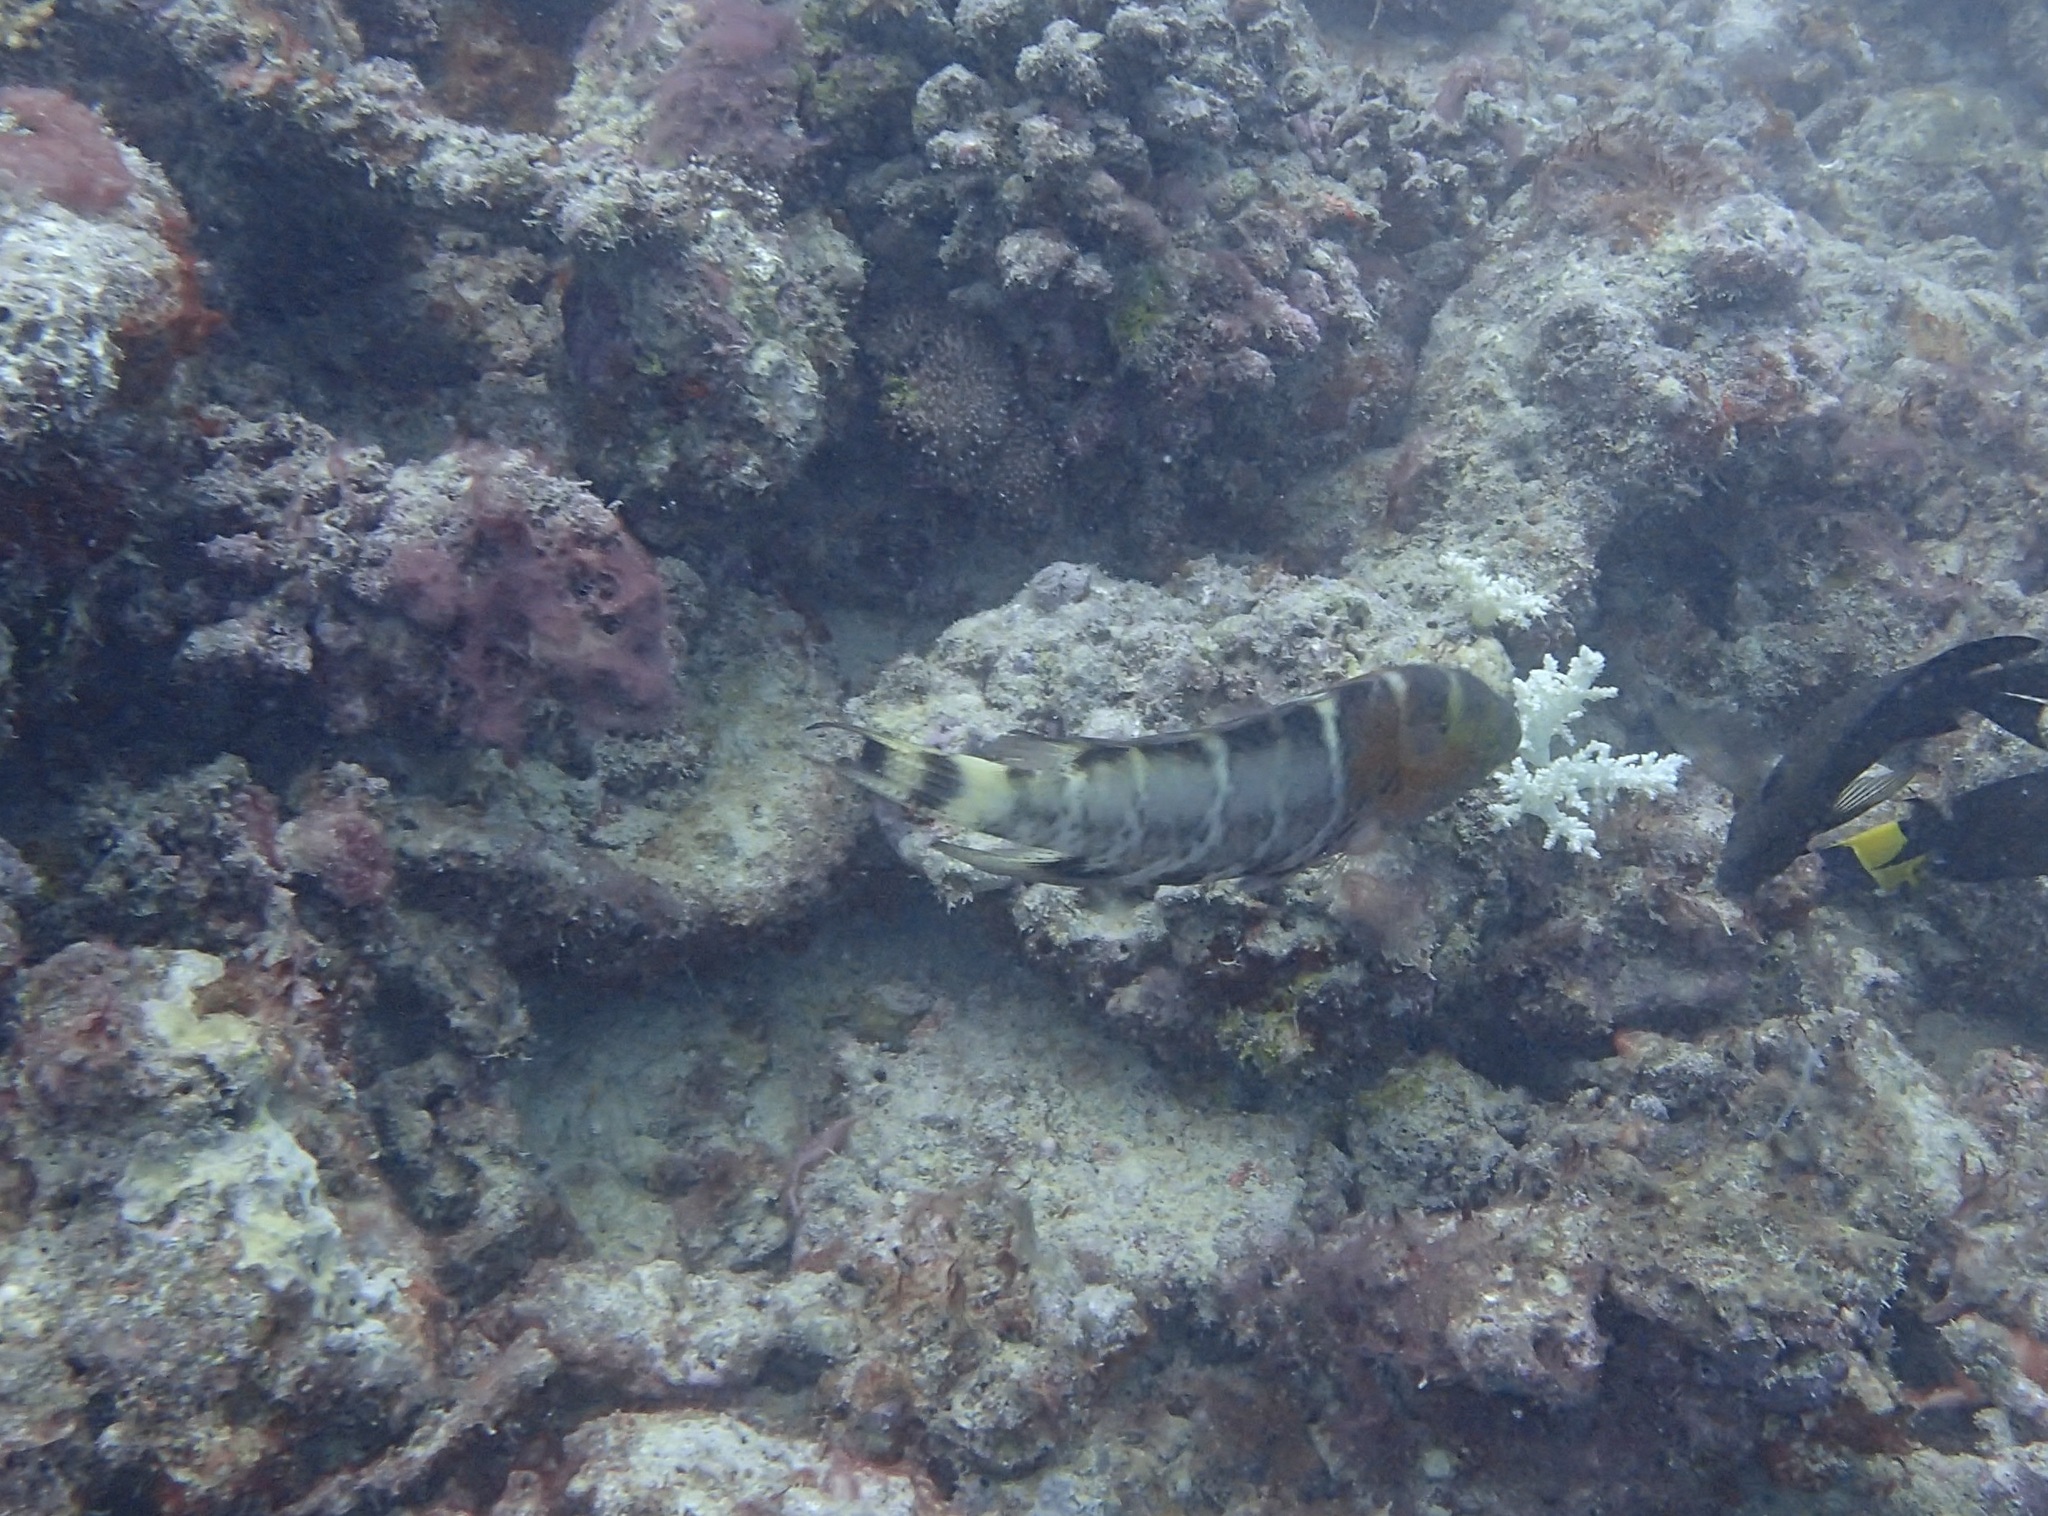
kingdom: Animalia
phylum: Chordata
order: Perciformes
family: Labridae
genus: Cheilinus
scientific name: Cheilinus fasciatus
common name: Red-breasted wrasse
